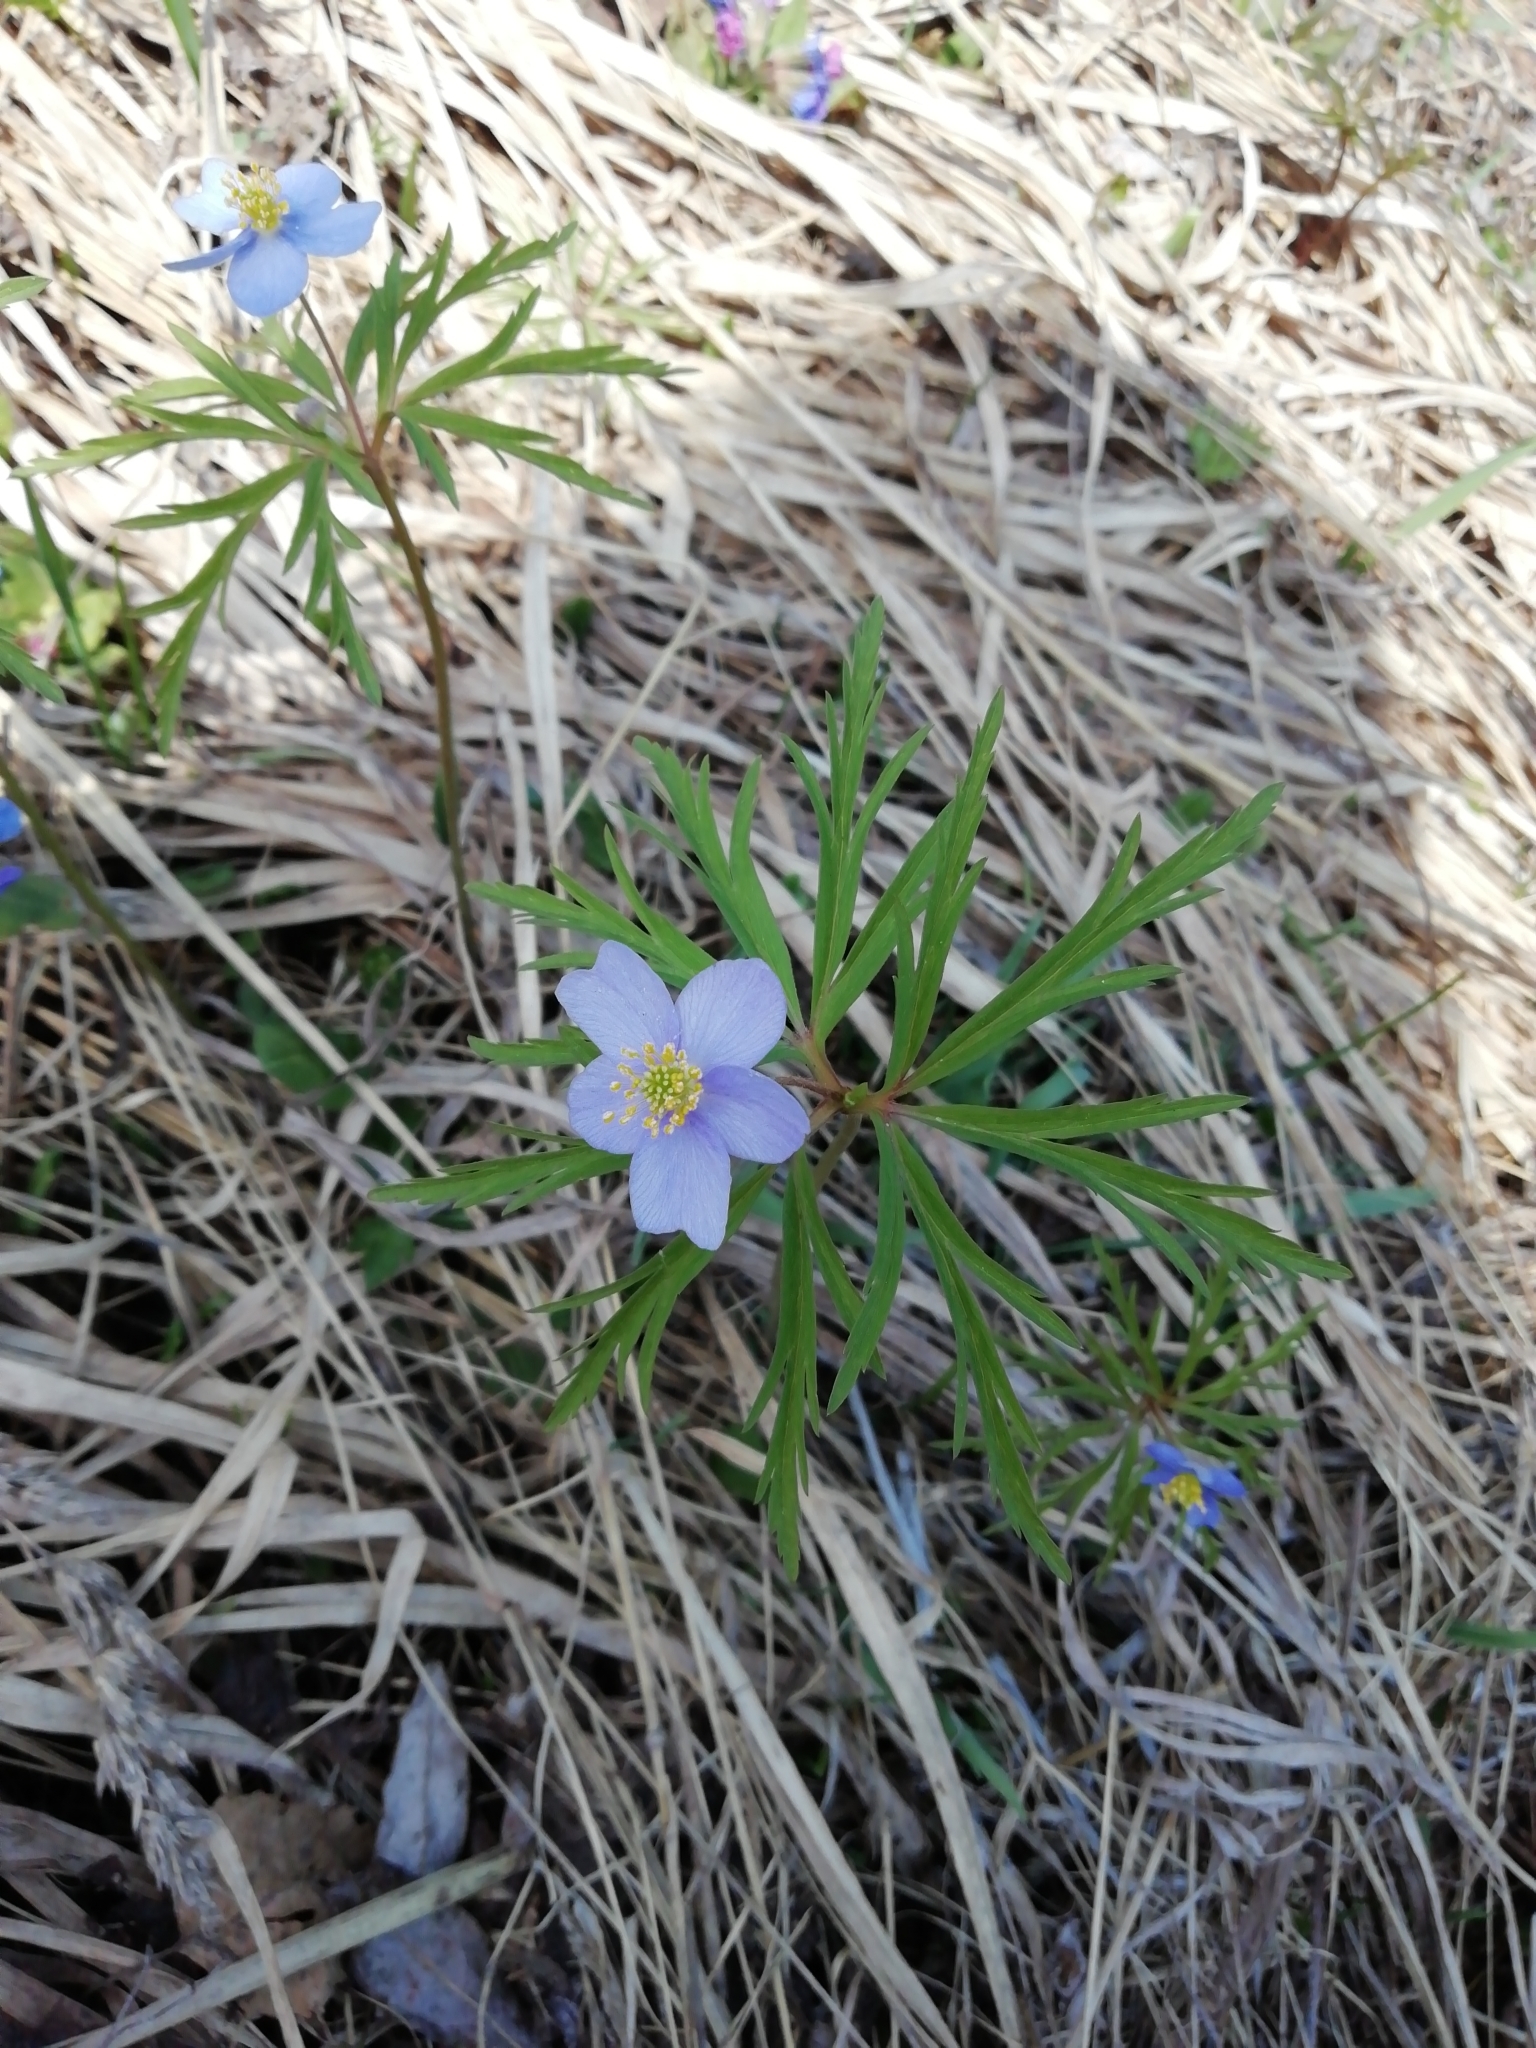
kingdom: Plantae
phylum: Tracheophyta
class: Magnoliopsida
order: Ranunculales
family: Ranunculaceae
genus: Anemone
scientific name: Anemone caerulea
